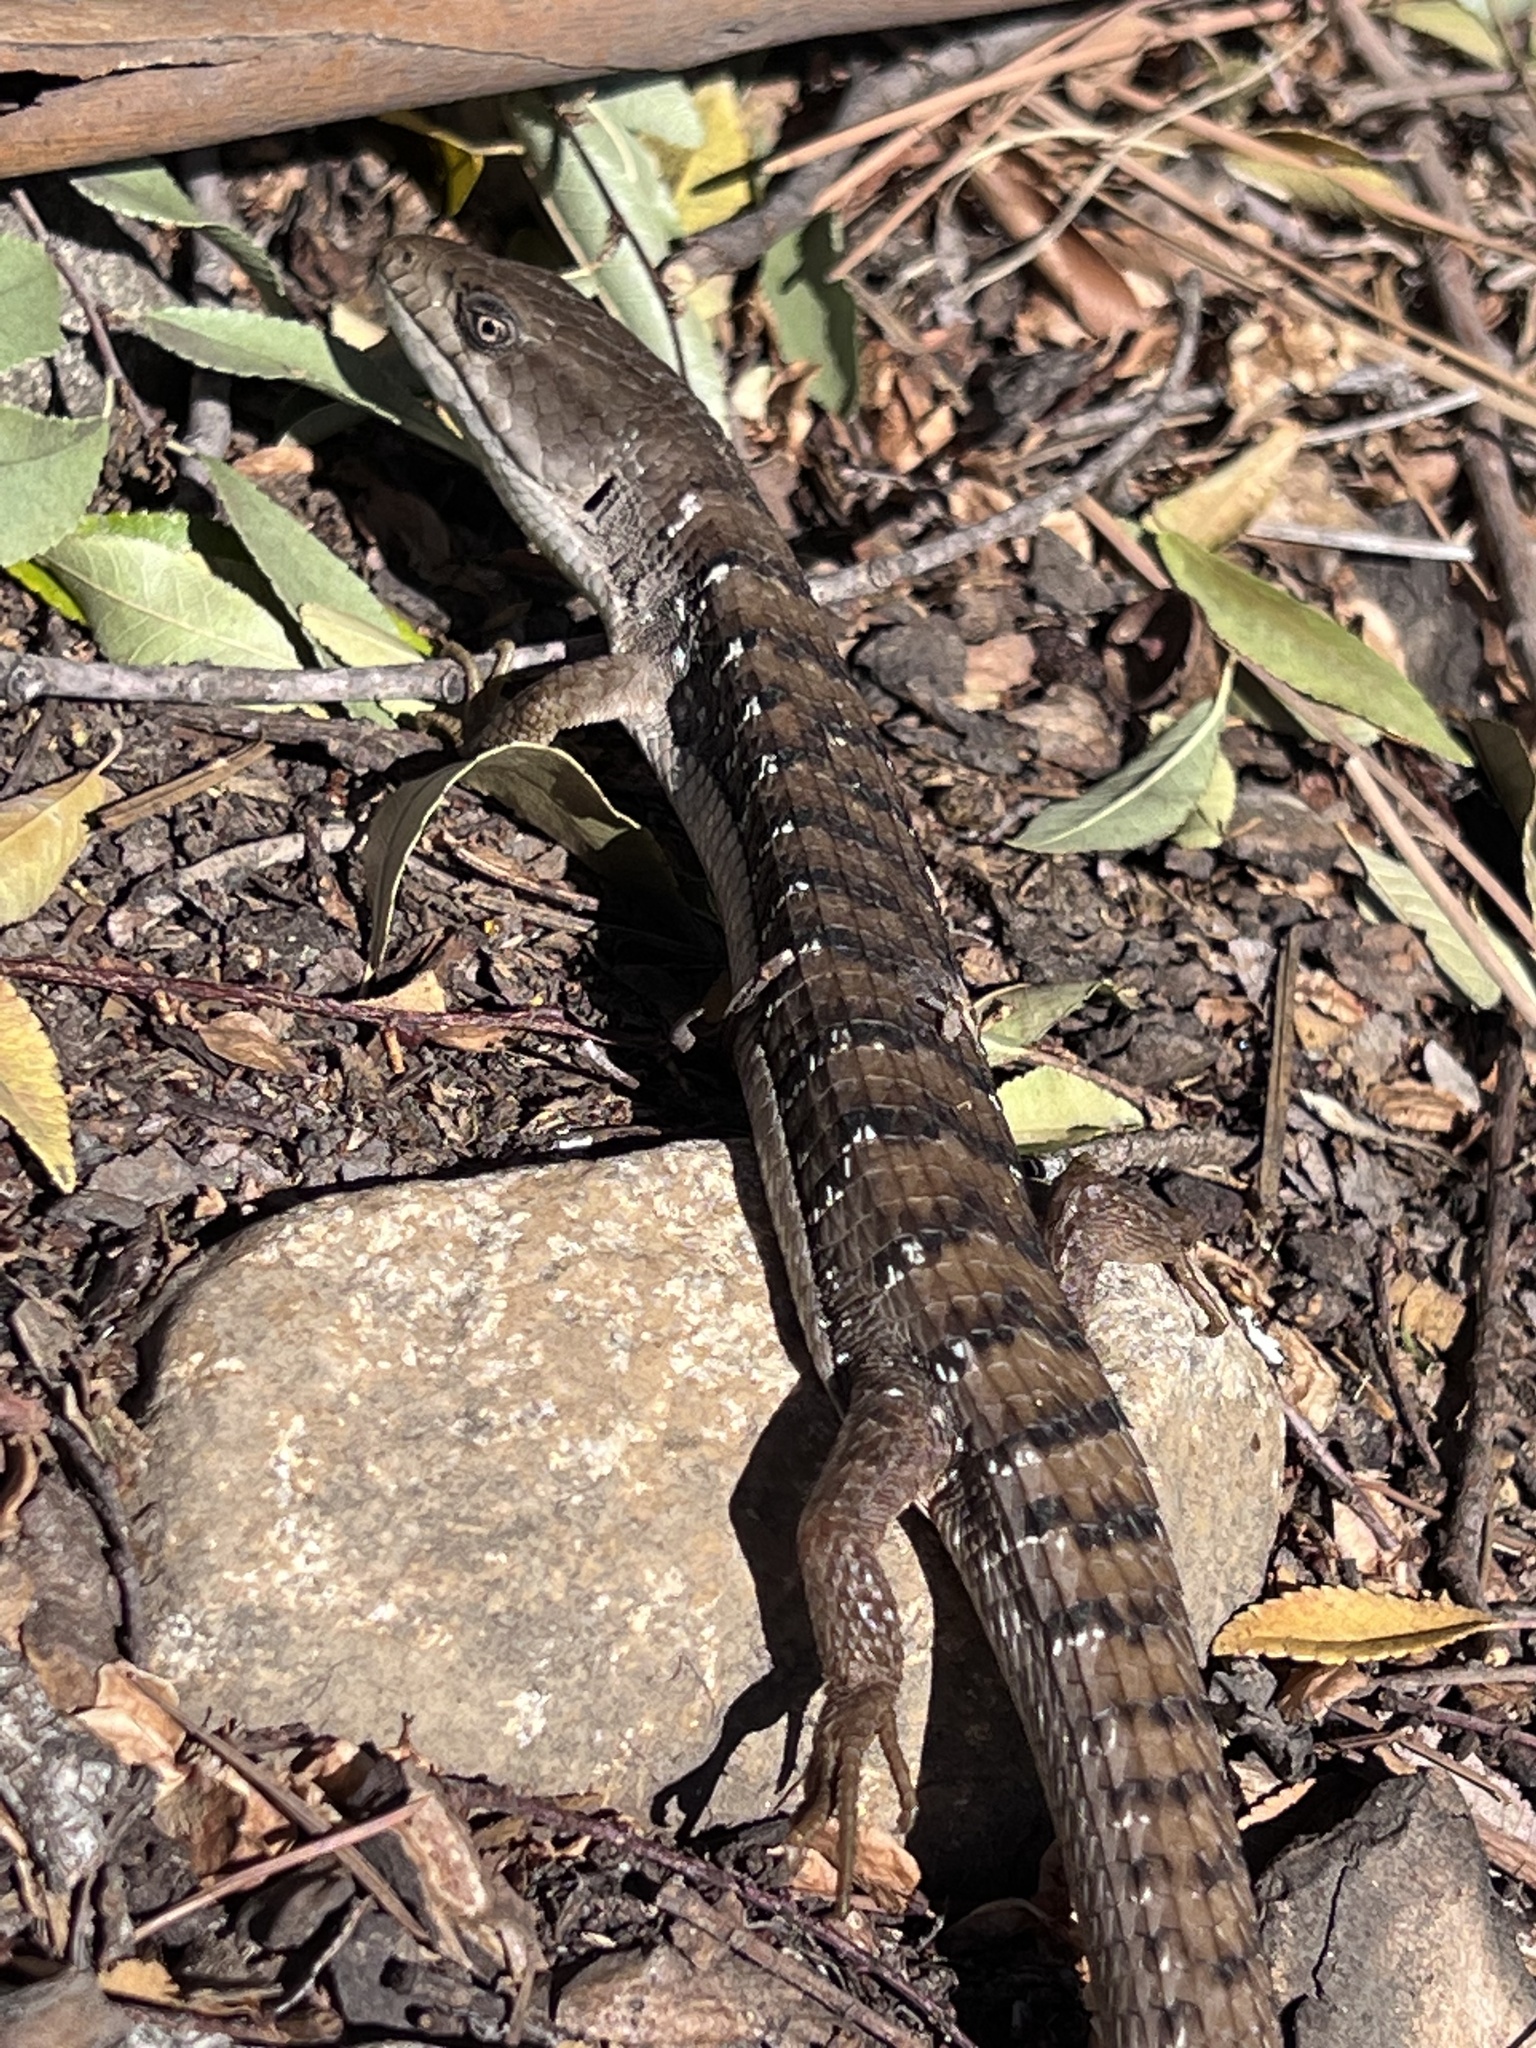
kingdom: Animalia
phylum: Chordata
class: Squamata
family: Anguidae
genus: Elgaria
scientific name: Elgaria multicarinata
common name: Southern alligator lizard
